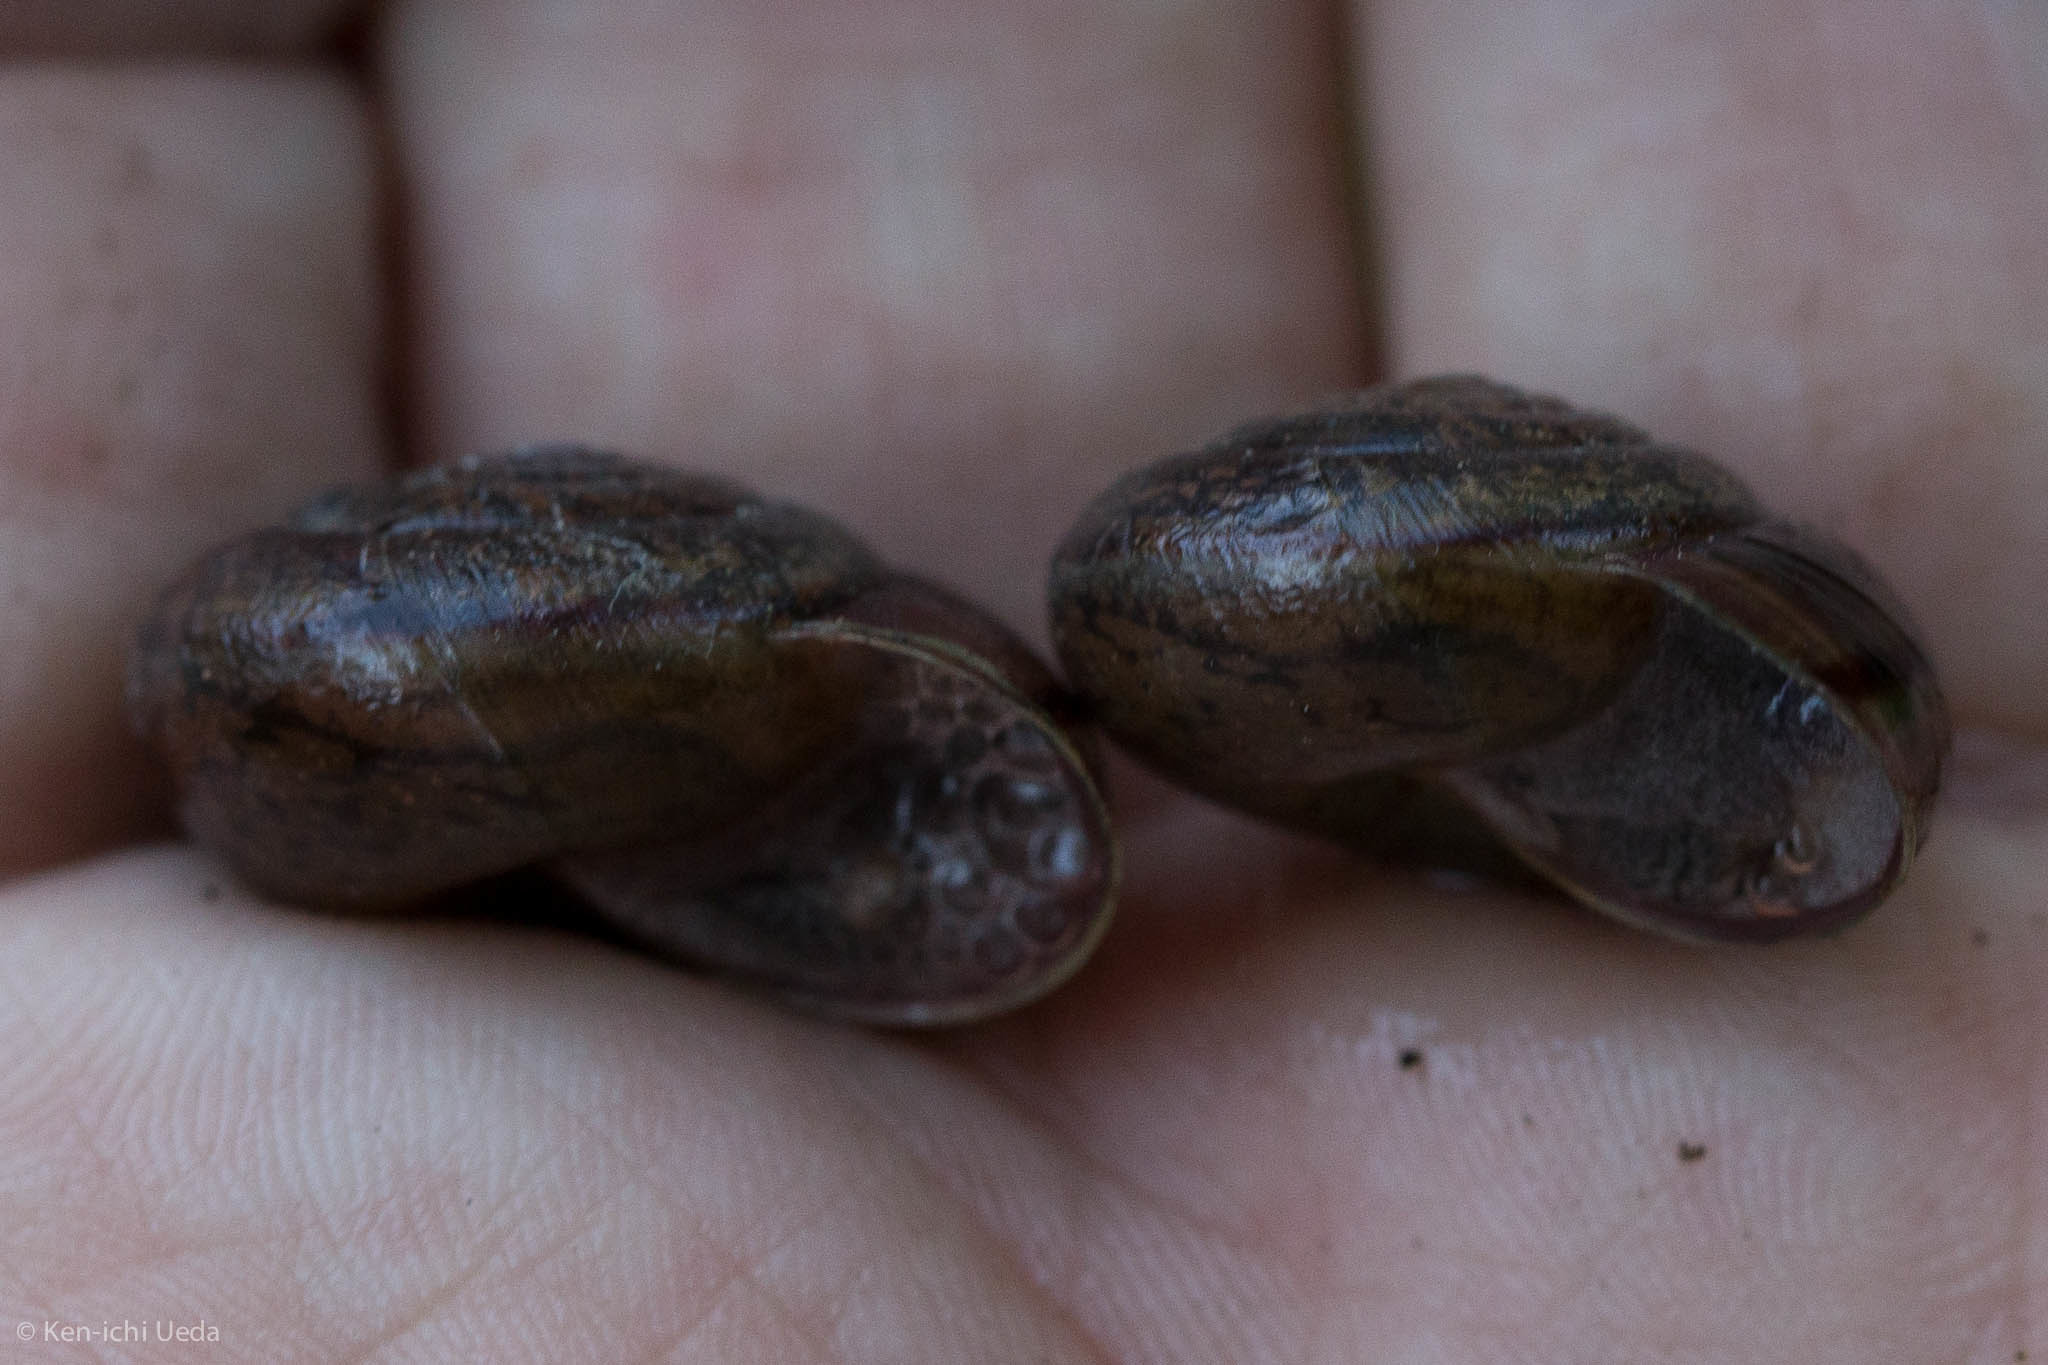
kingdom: Animalia
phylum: Mollusca
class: Gastropoda
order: Stylommatophora
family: Xanthonychidae
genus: Helminthoglypta
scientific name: Helminthoglypta contracostae
